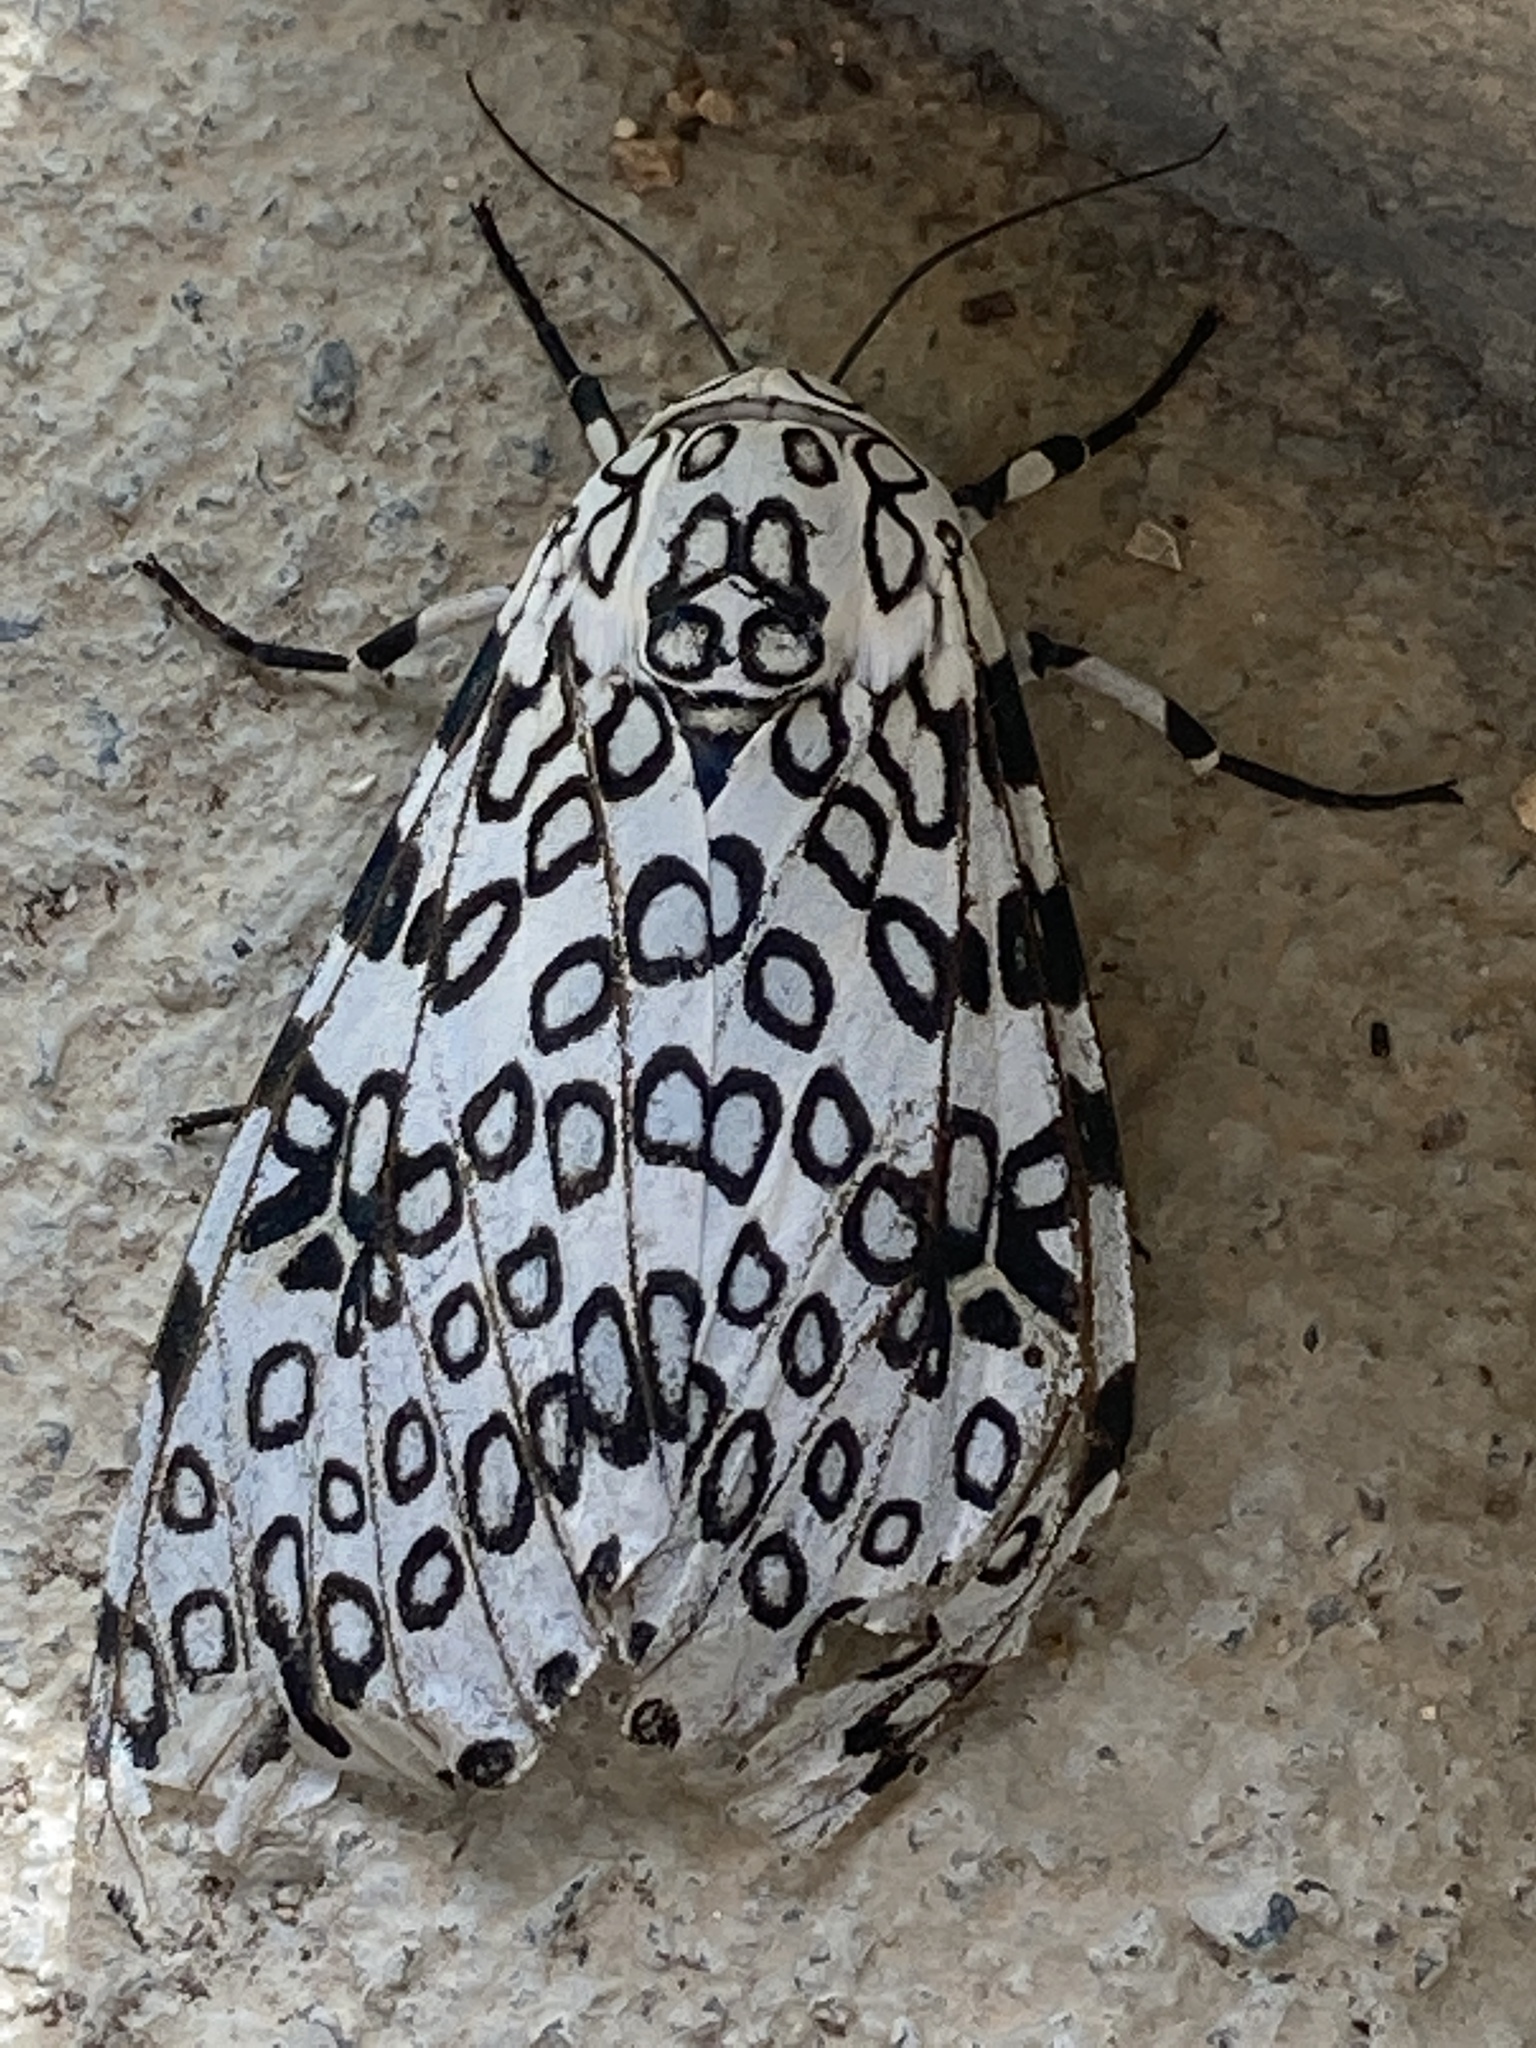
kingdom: Animalia
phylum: Arthropoda
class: Insecta
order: Lepidoptera
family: Erebidae
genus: Hypercompe
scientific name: Hypercompe scribonia
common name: Giant leopard moth
